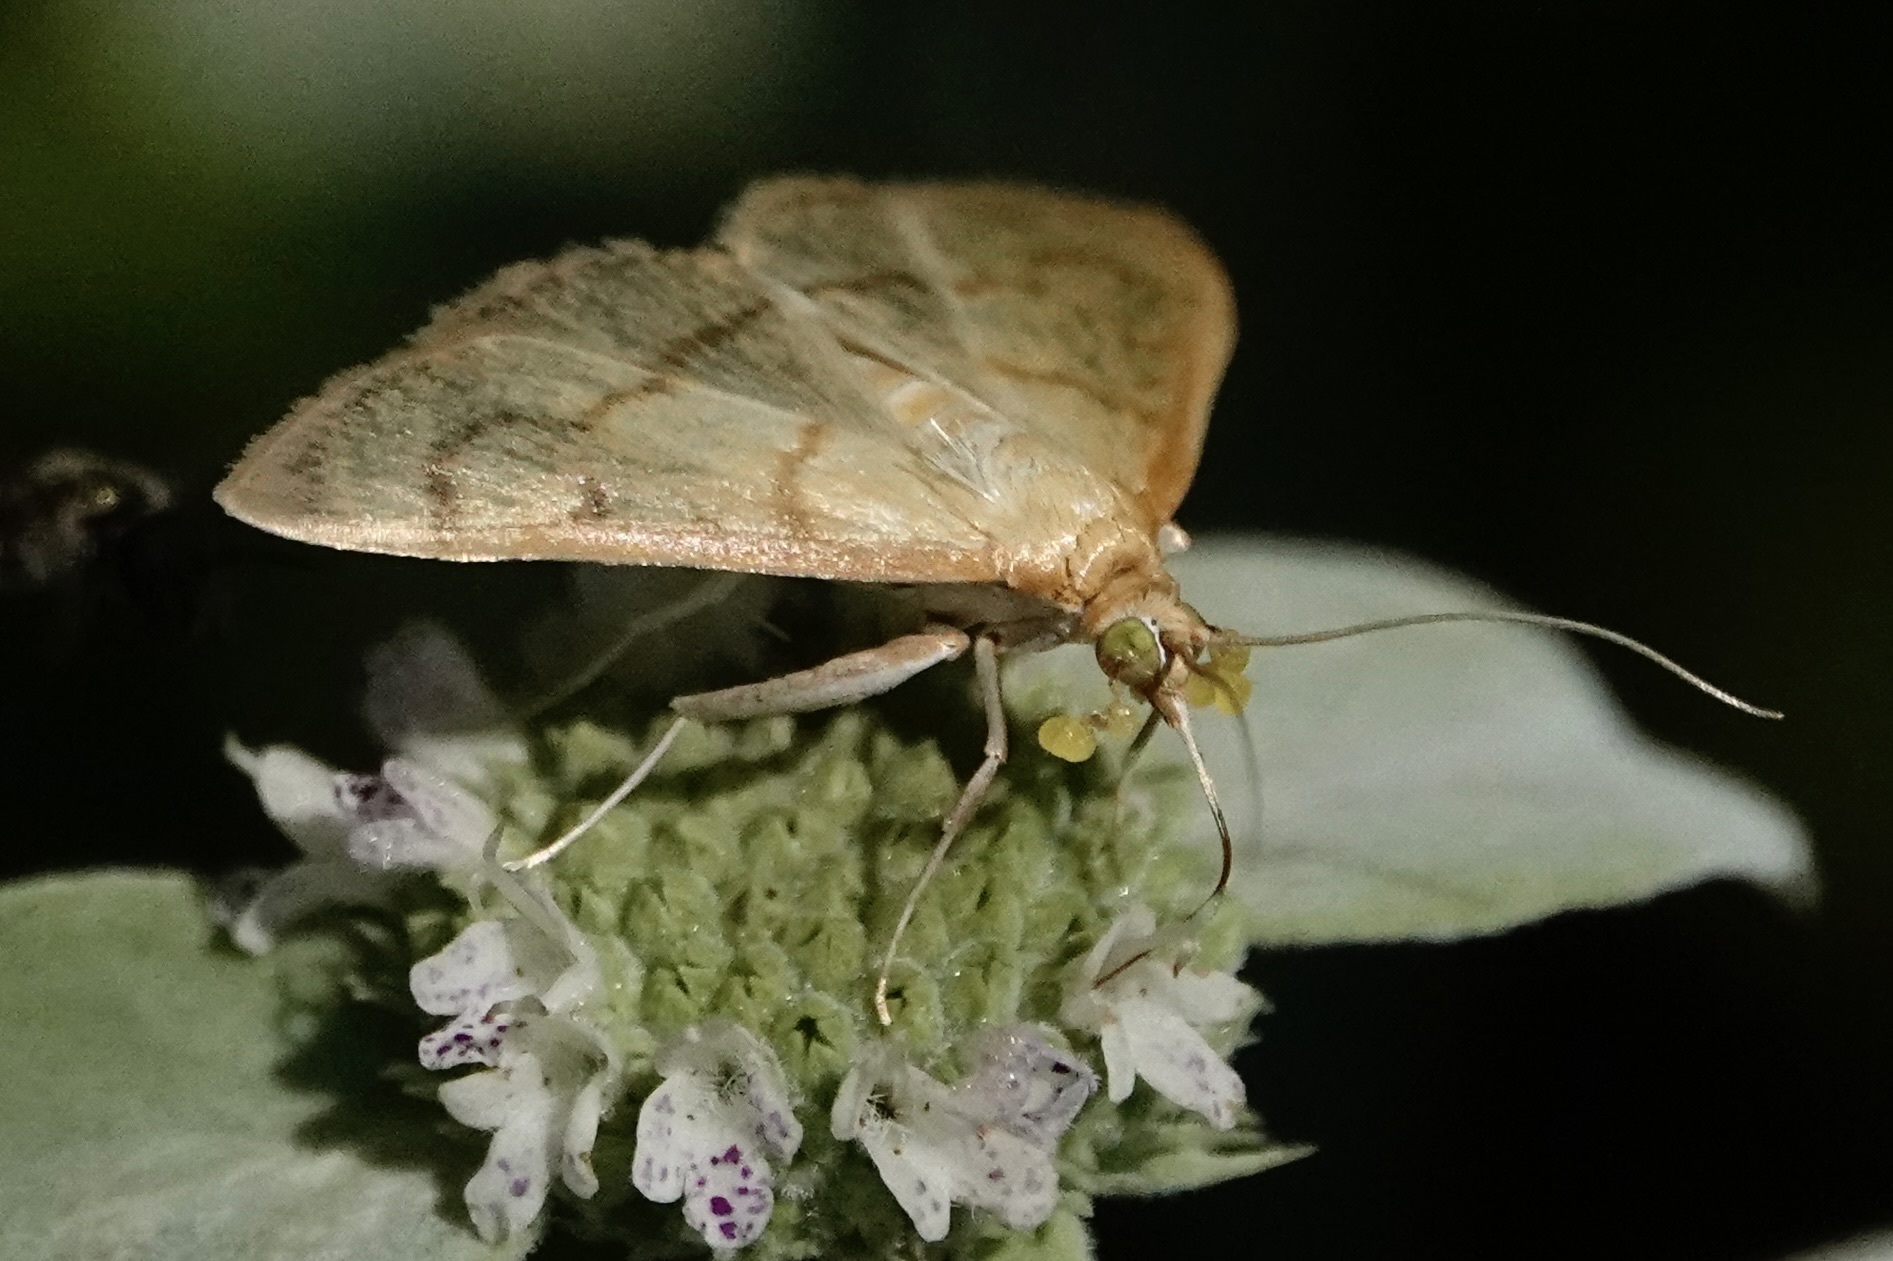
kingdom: Animalia
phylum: Arthropoda
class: Insecta
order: Lepidoptera
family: Crambidae
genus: Neohelvibotys
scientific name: Neohelvibotys neohelvialis
